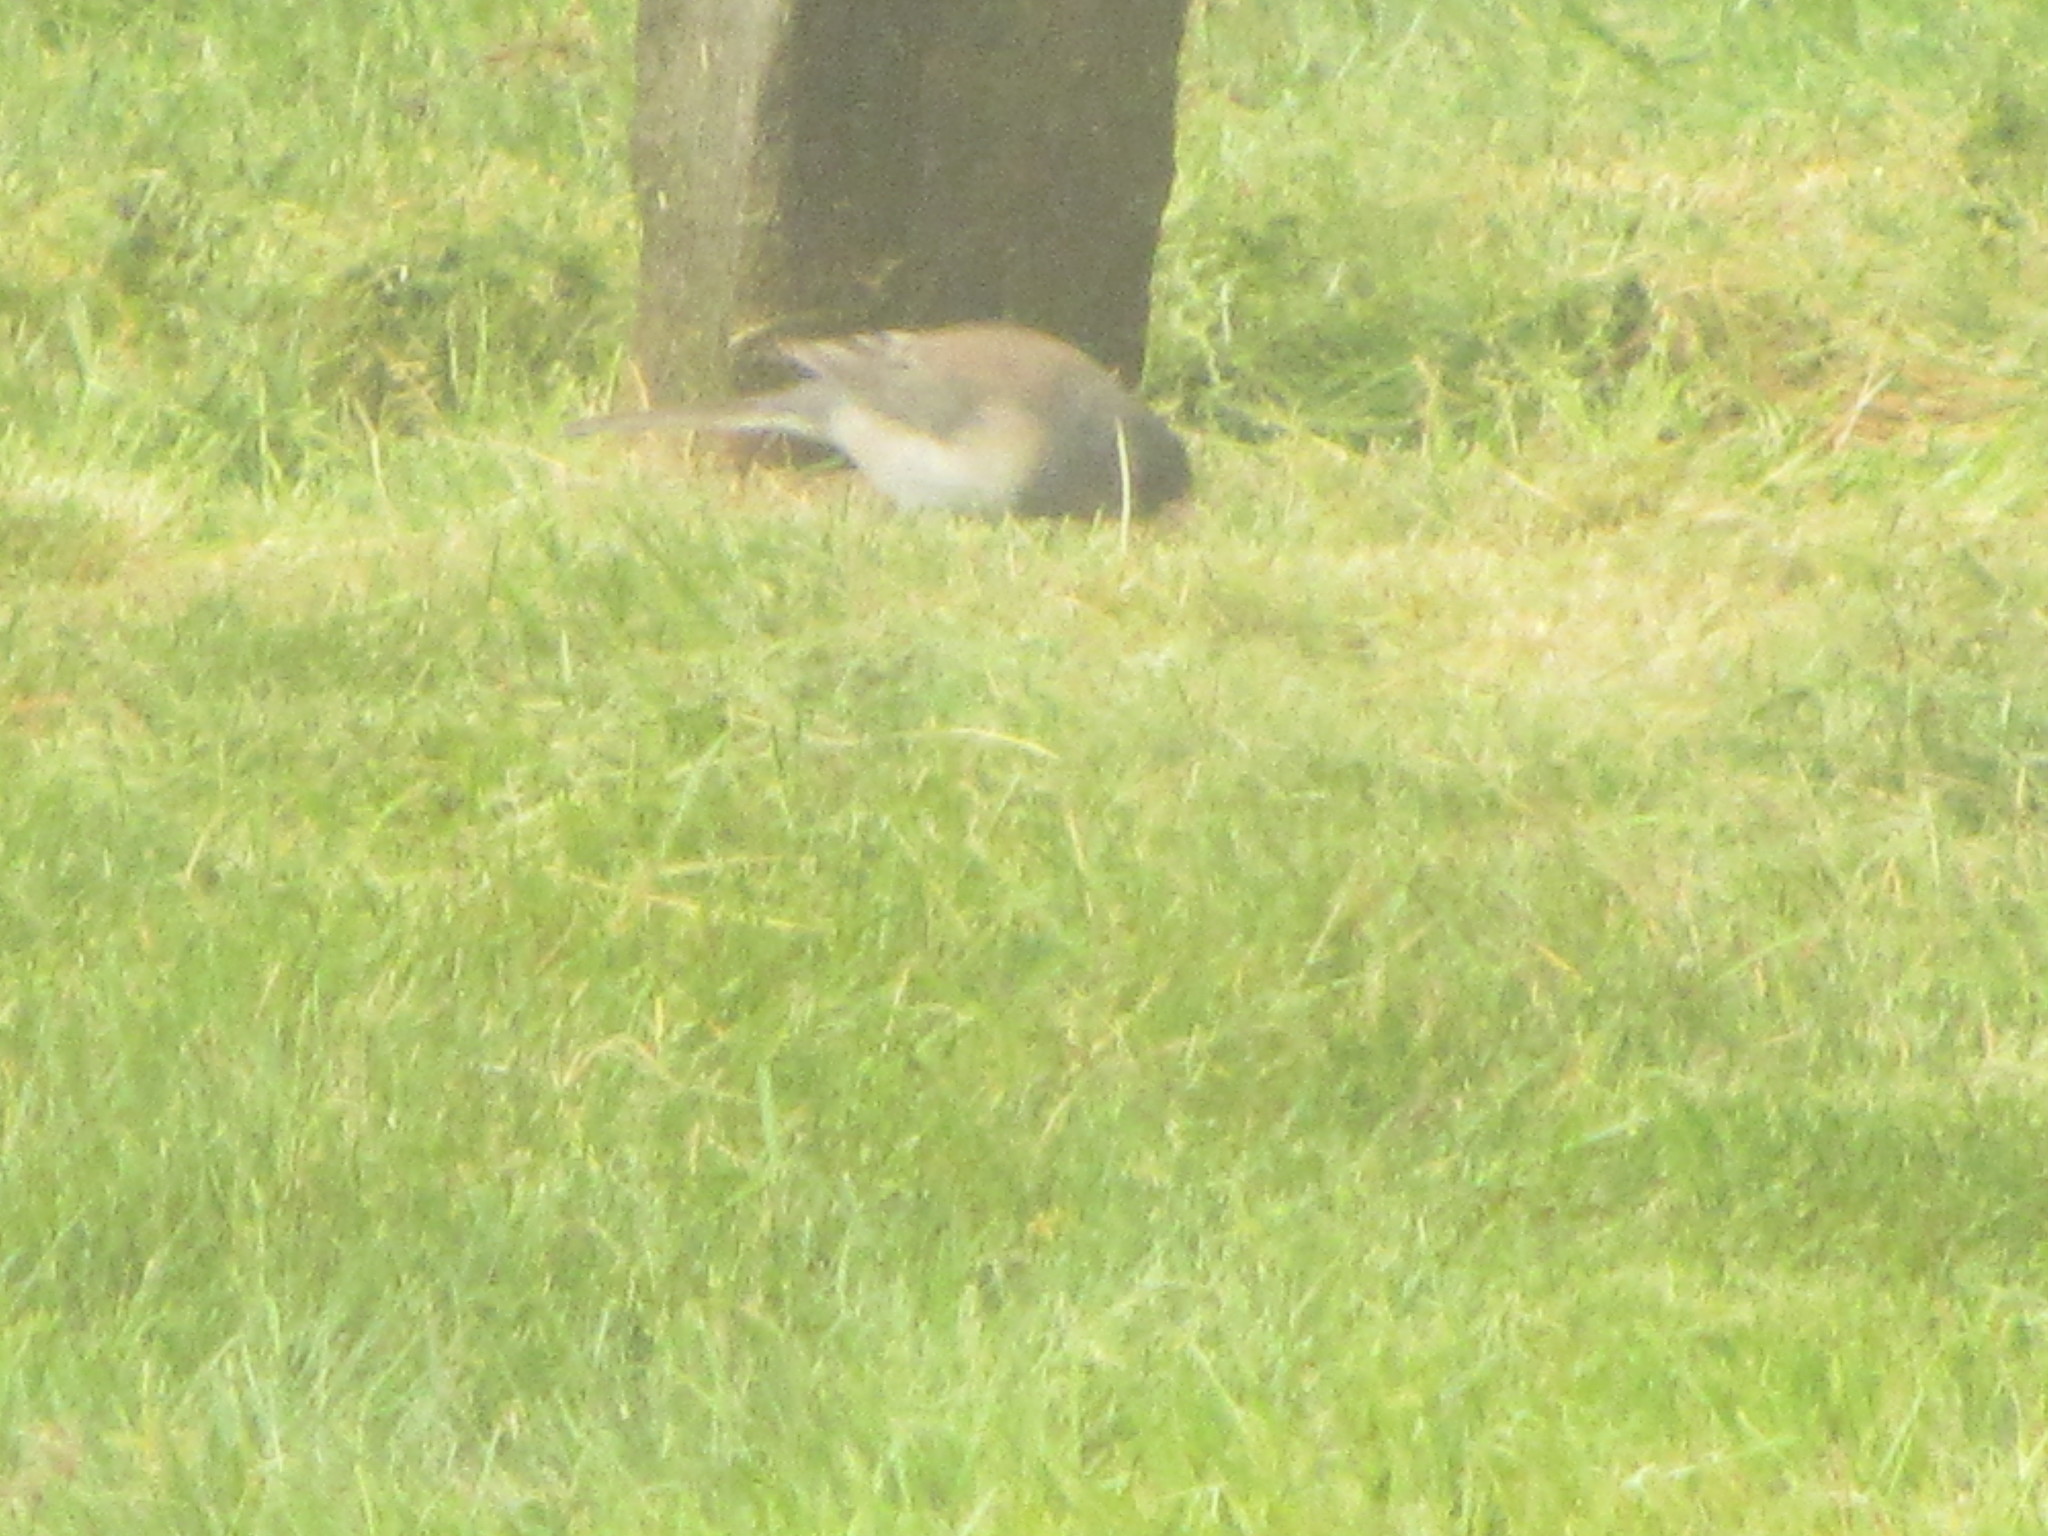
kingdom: Animalia
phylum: Chordata
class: Aves
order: Passeriformes
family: Passerellidae
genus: Junco
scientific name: Junco hyemalis
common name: Dark-eyed junco
